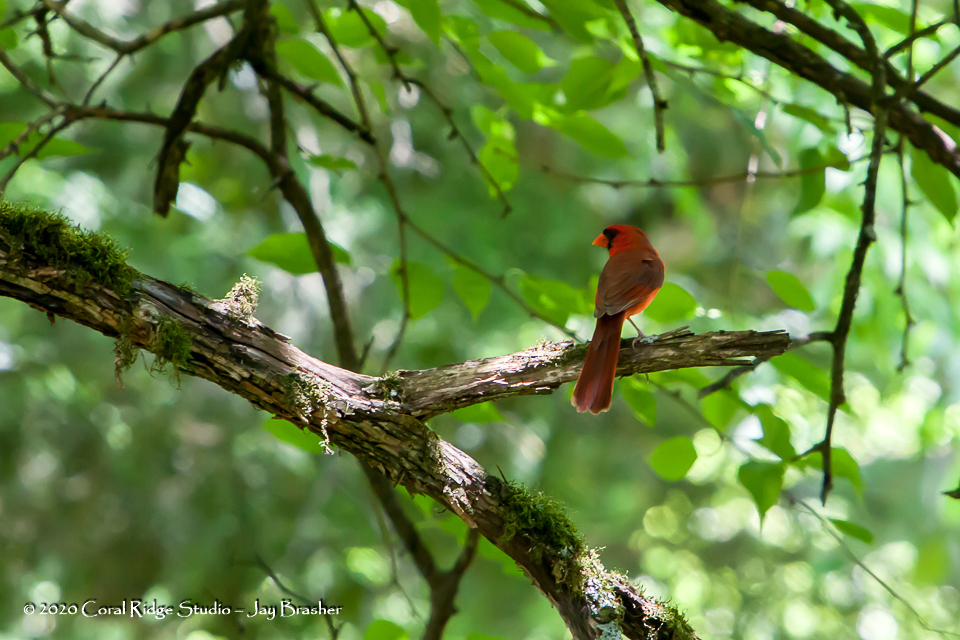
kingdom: Animalia
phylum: Chordata
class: Aves
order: Passeriformes
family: Cardinalidae
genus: Cardinalis
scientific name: Cardinalis cardinalis
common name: Northern cardinal
